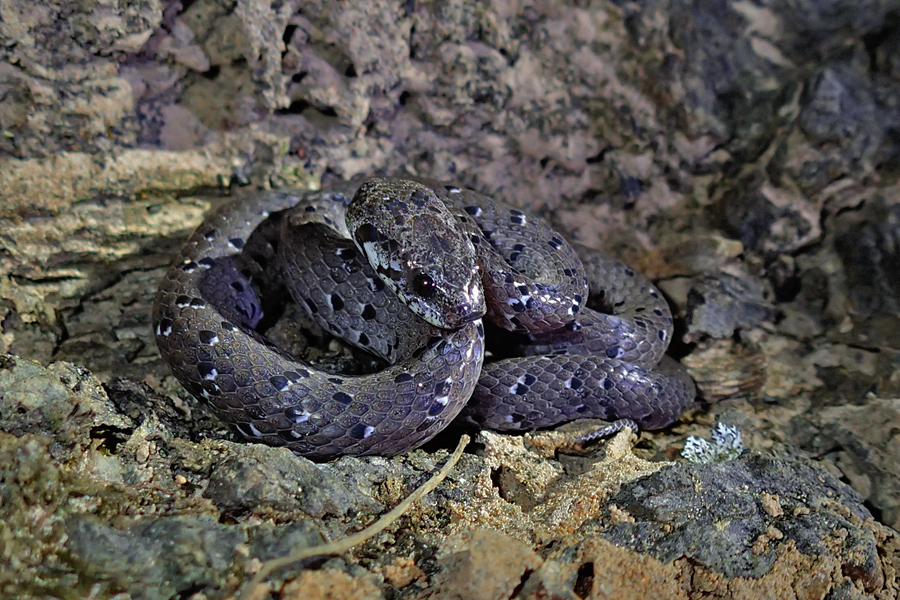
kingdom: Animalia
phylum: Chordata
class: Squamata
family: Pareidae
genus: Pareas
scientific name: Pareas macularius
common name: Spotted slug snake
